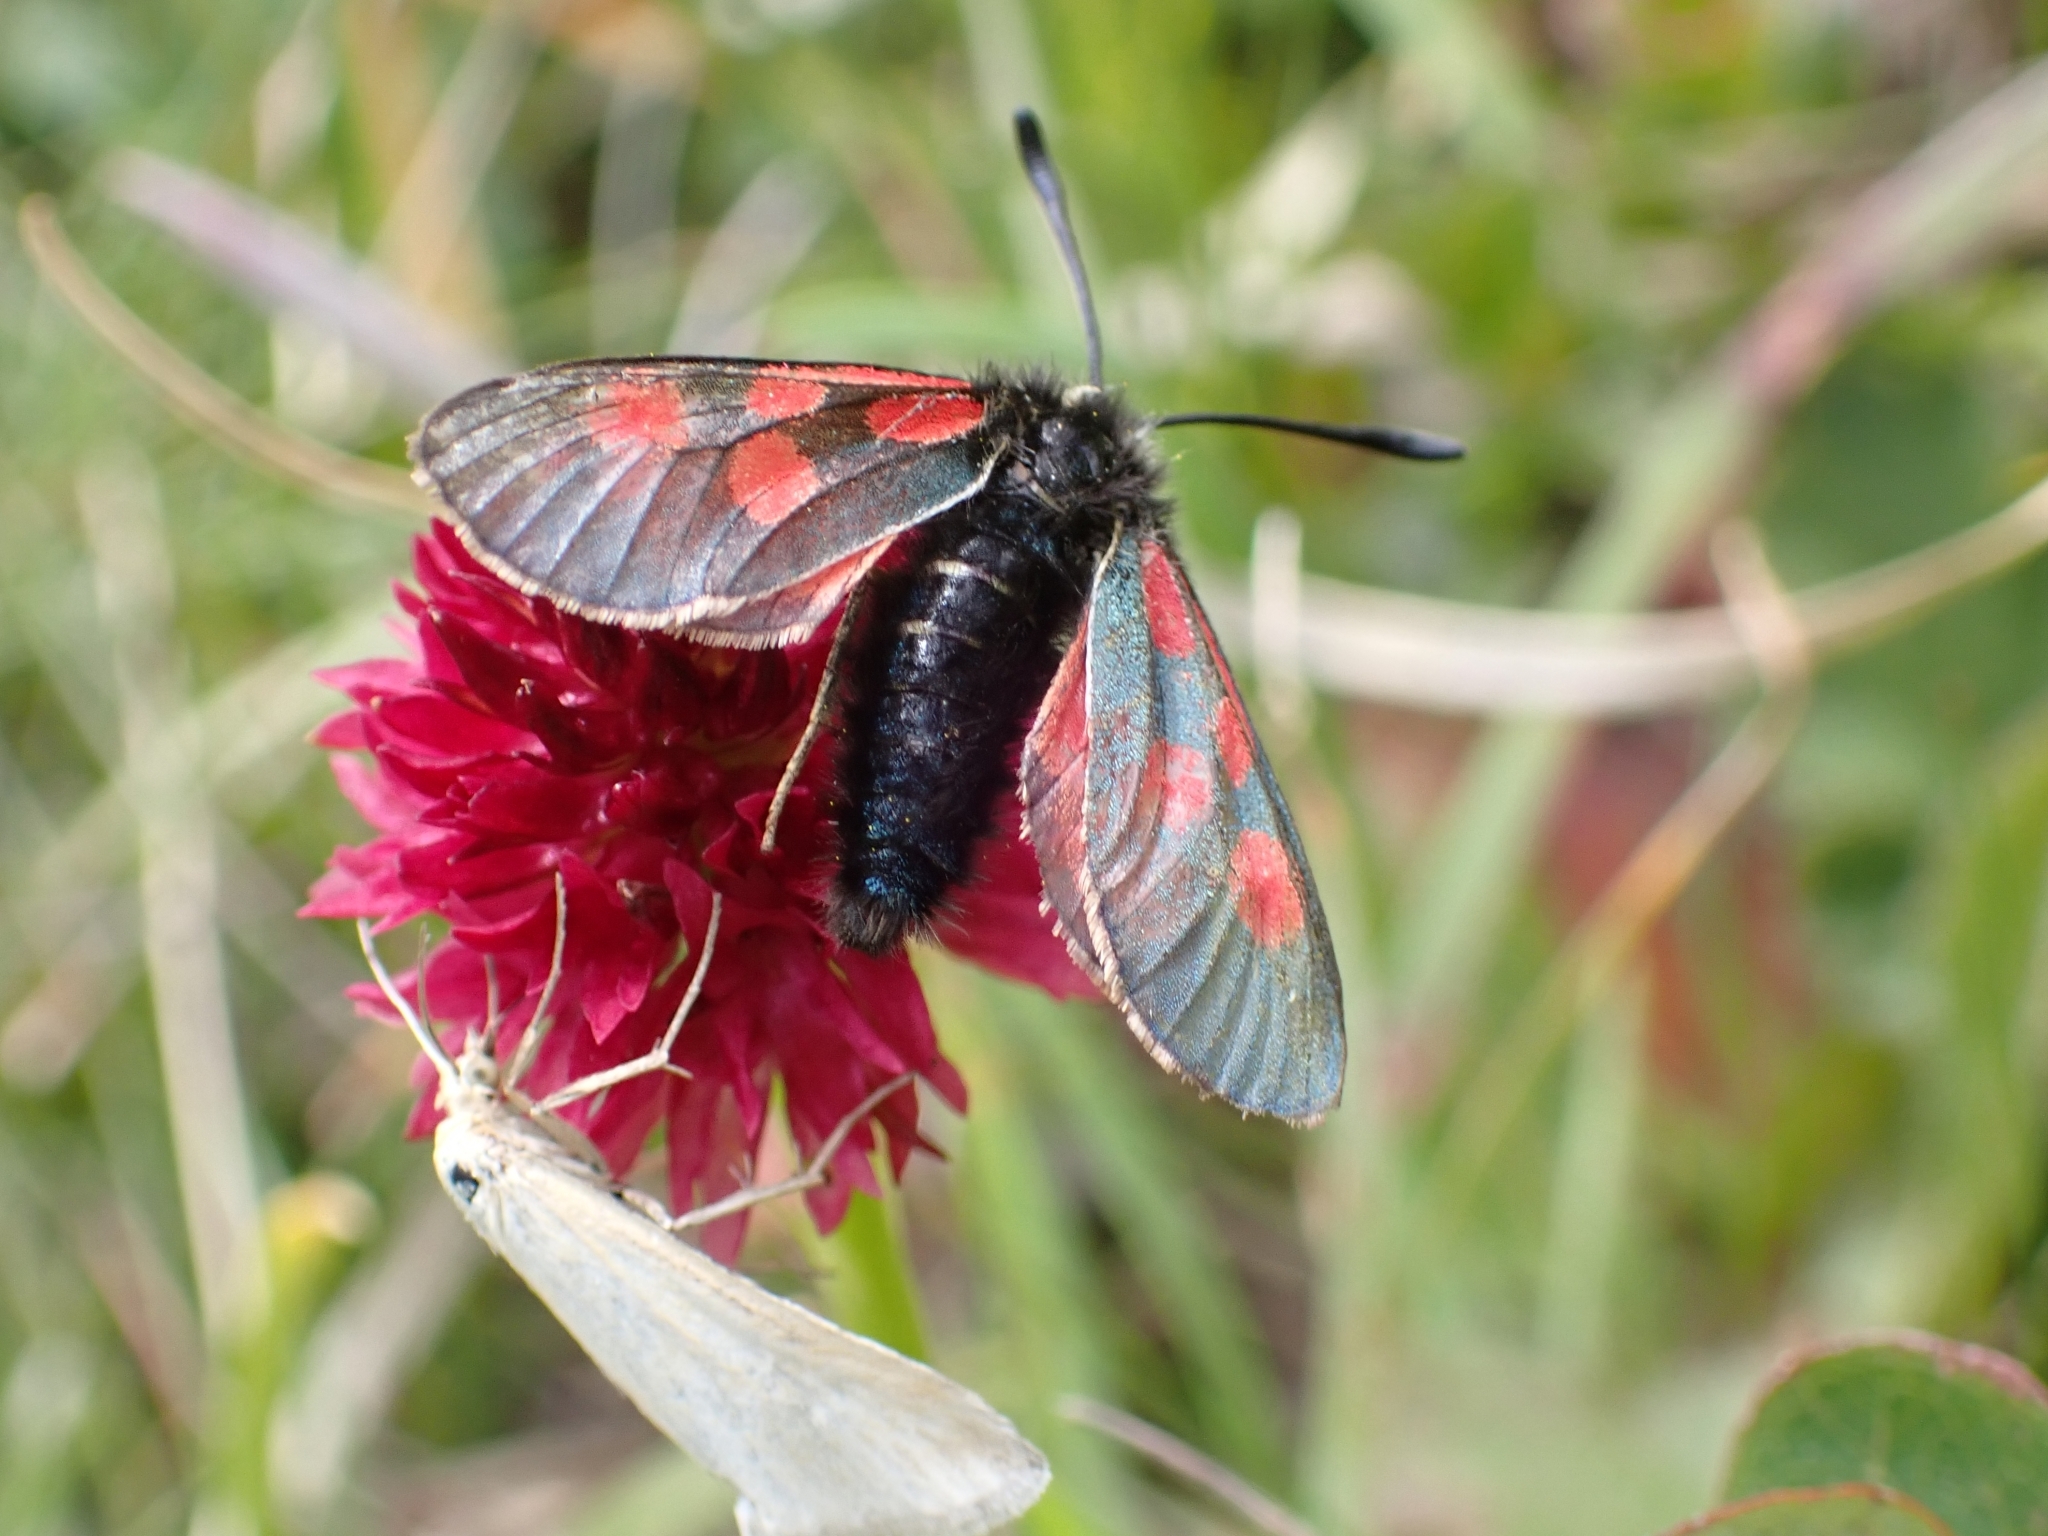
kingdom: Animalia
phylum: Arthropoda
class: Insecta
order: Lepidoptera
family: Zygaenidae
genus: Zygaena
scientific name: Zygaena exulans
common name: Scotch burnet
